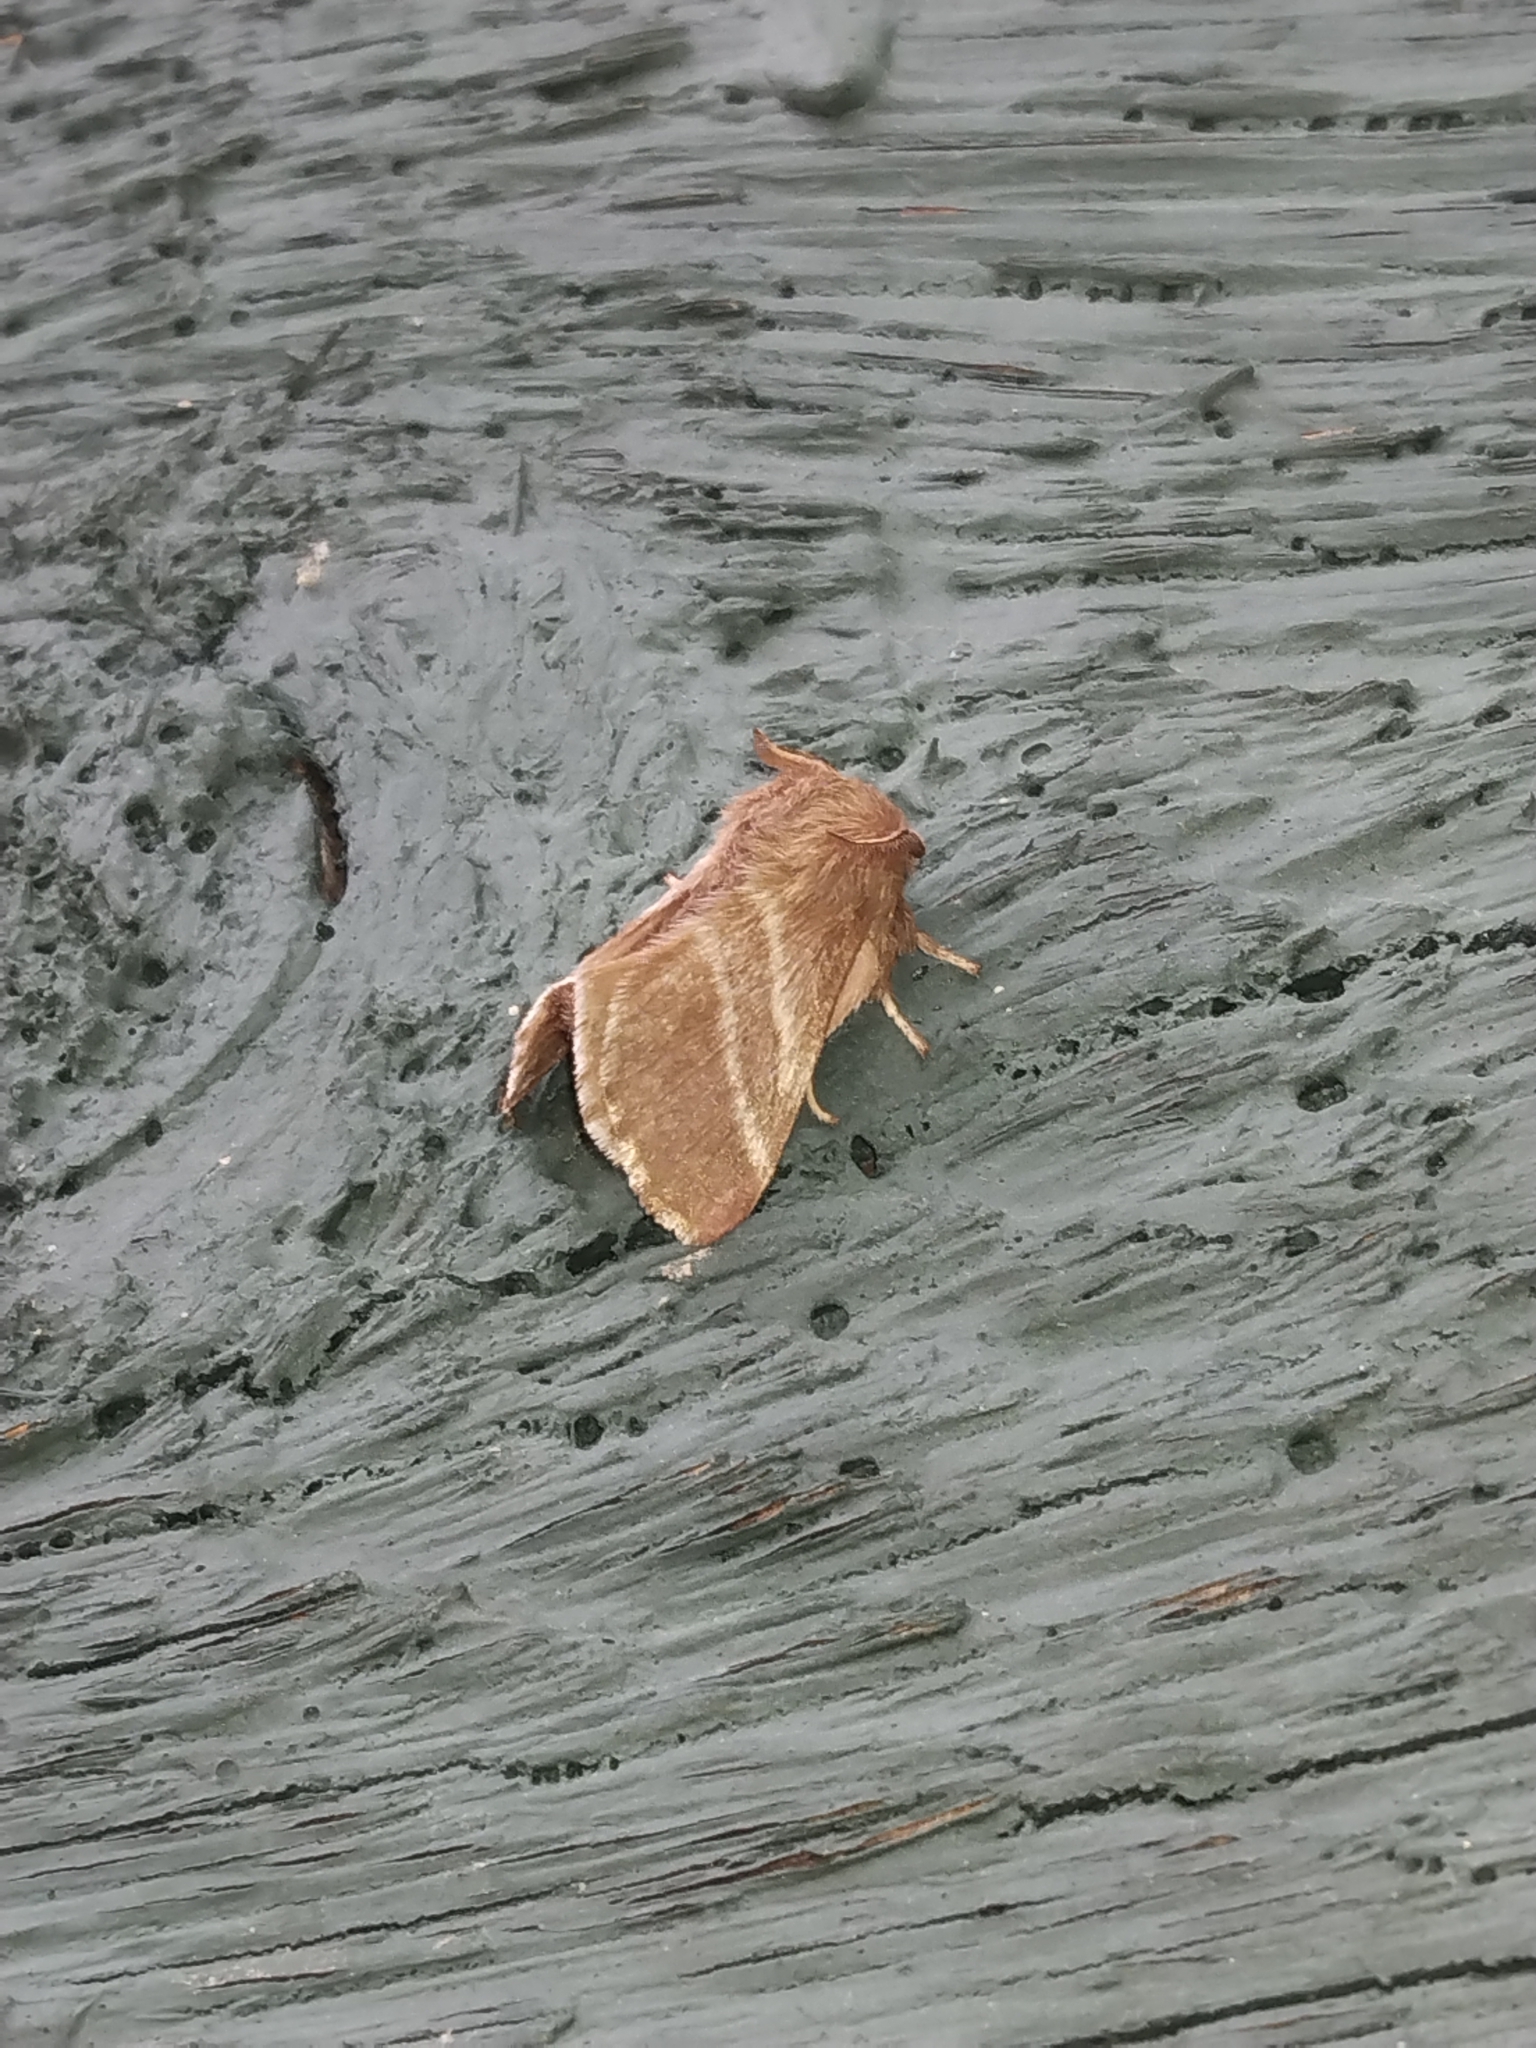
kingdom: Animalia
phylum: Arthropoda
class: Insecta
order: Lepidoptera
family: Lasiocampidae
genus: Malacosoma
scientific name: Malacosoma americana
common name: Eastern tent caterpillar moth
